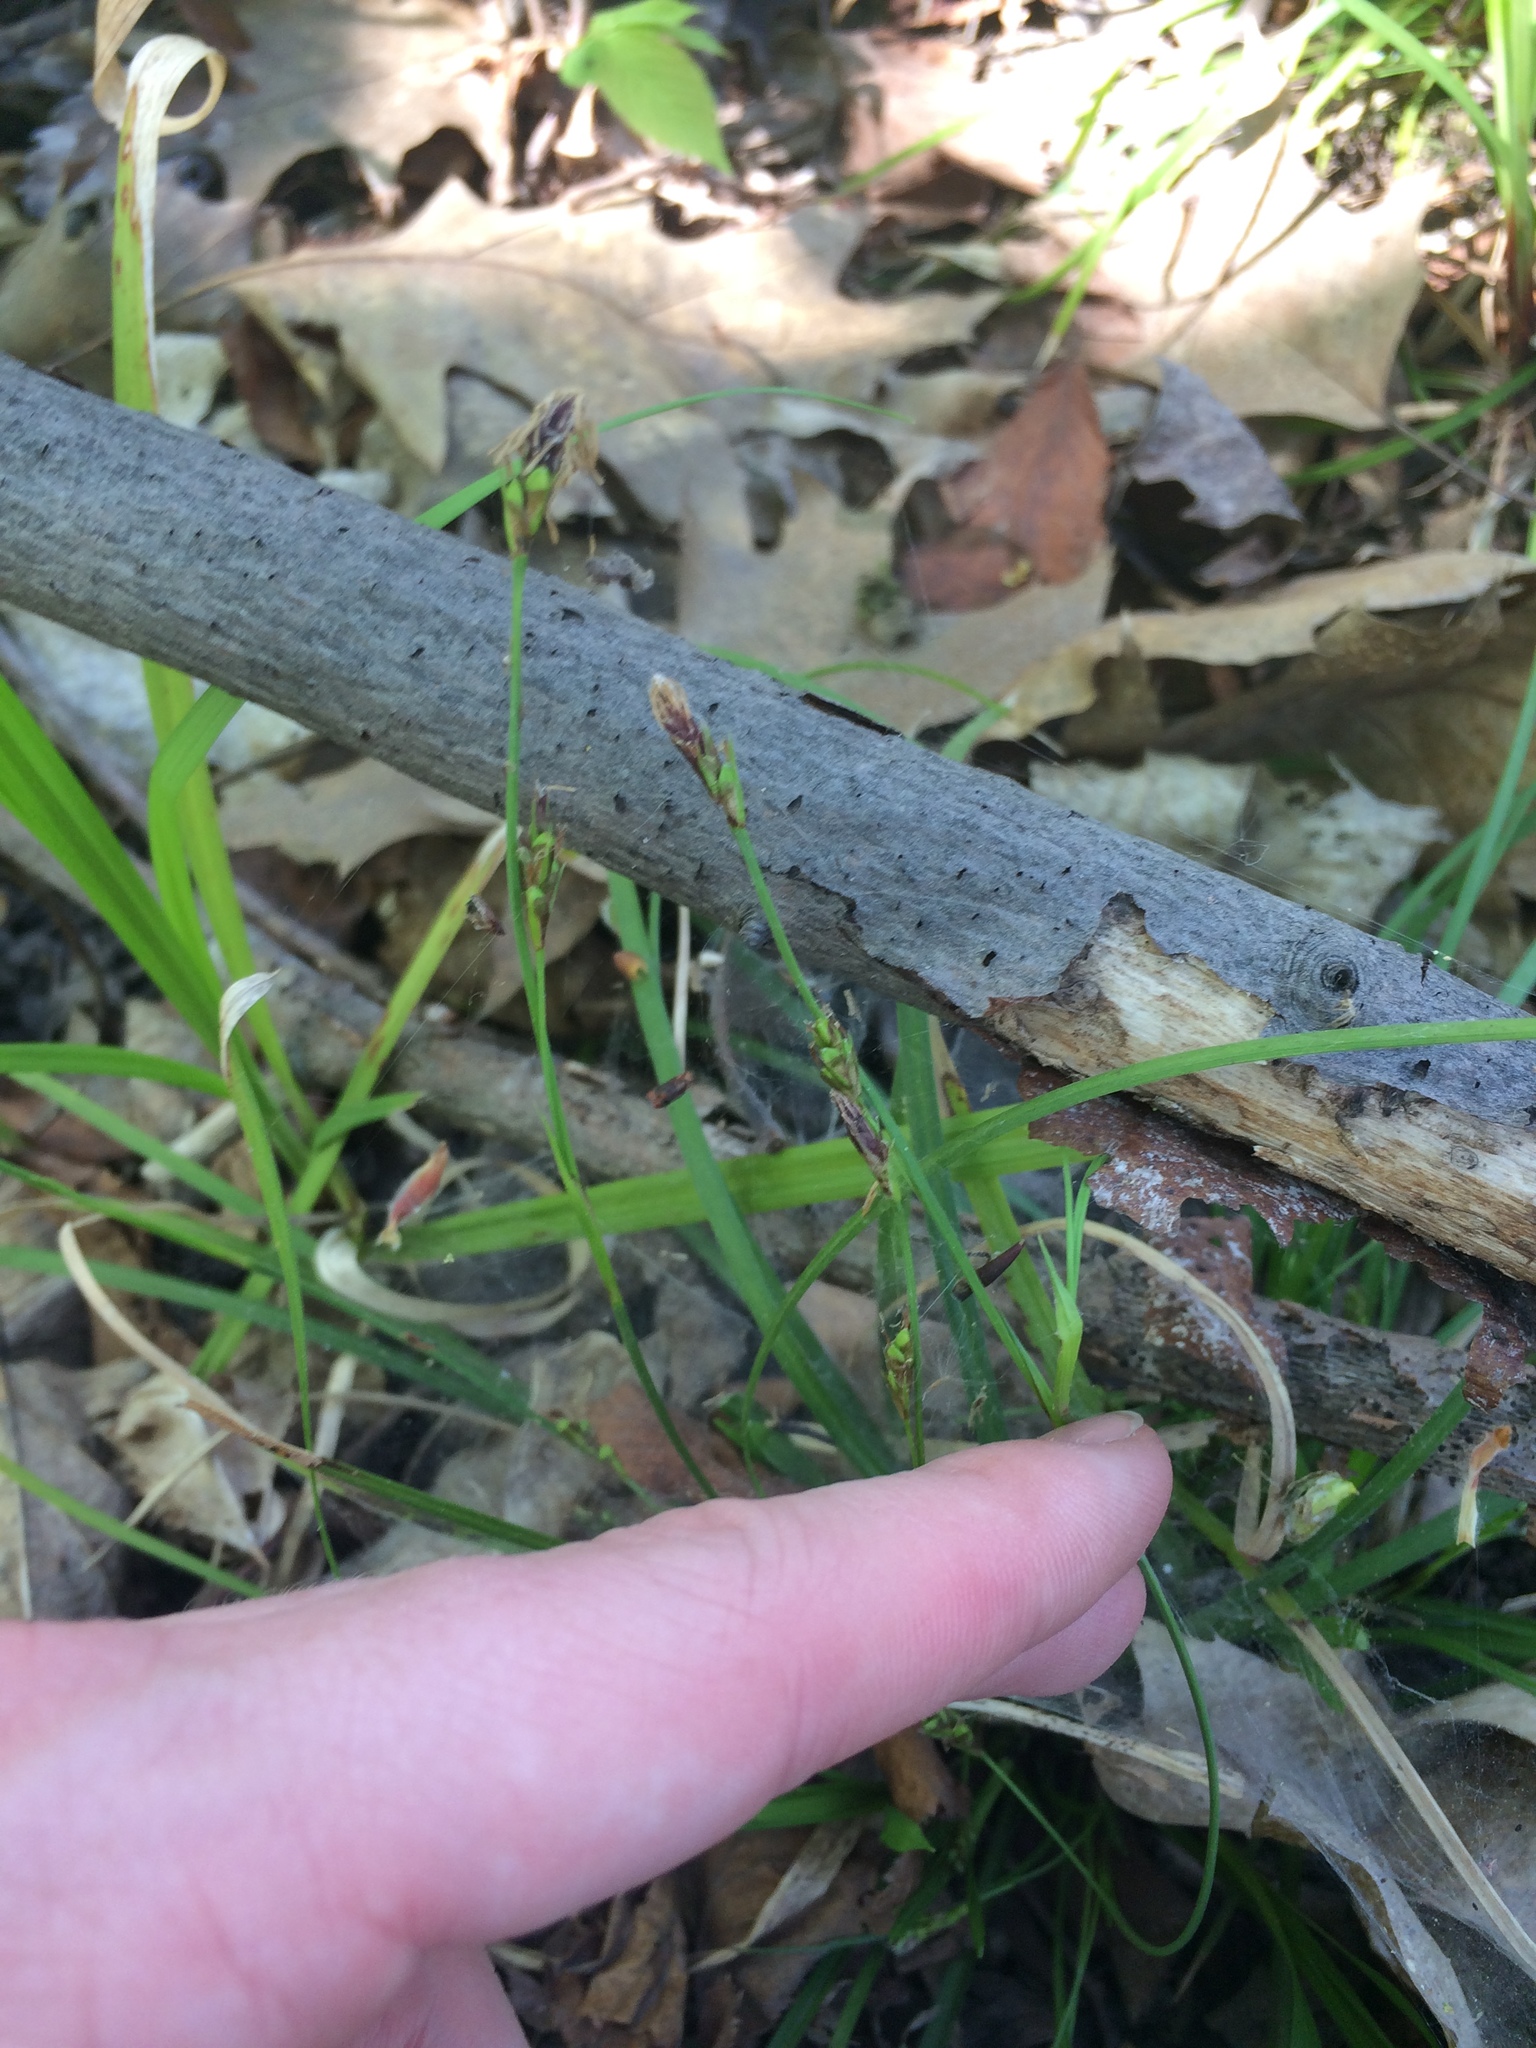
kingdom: Plantae
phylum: Tracheophyta
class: Liliopsida
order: Poales
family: Cyperaceae
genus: Carex
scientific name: Carex pedunculata
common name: Pedunculate sedge
